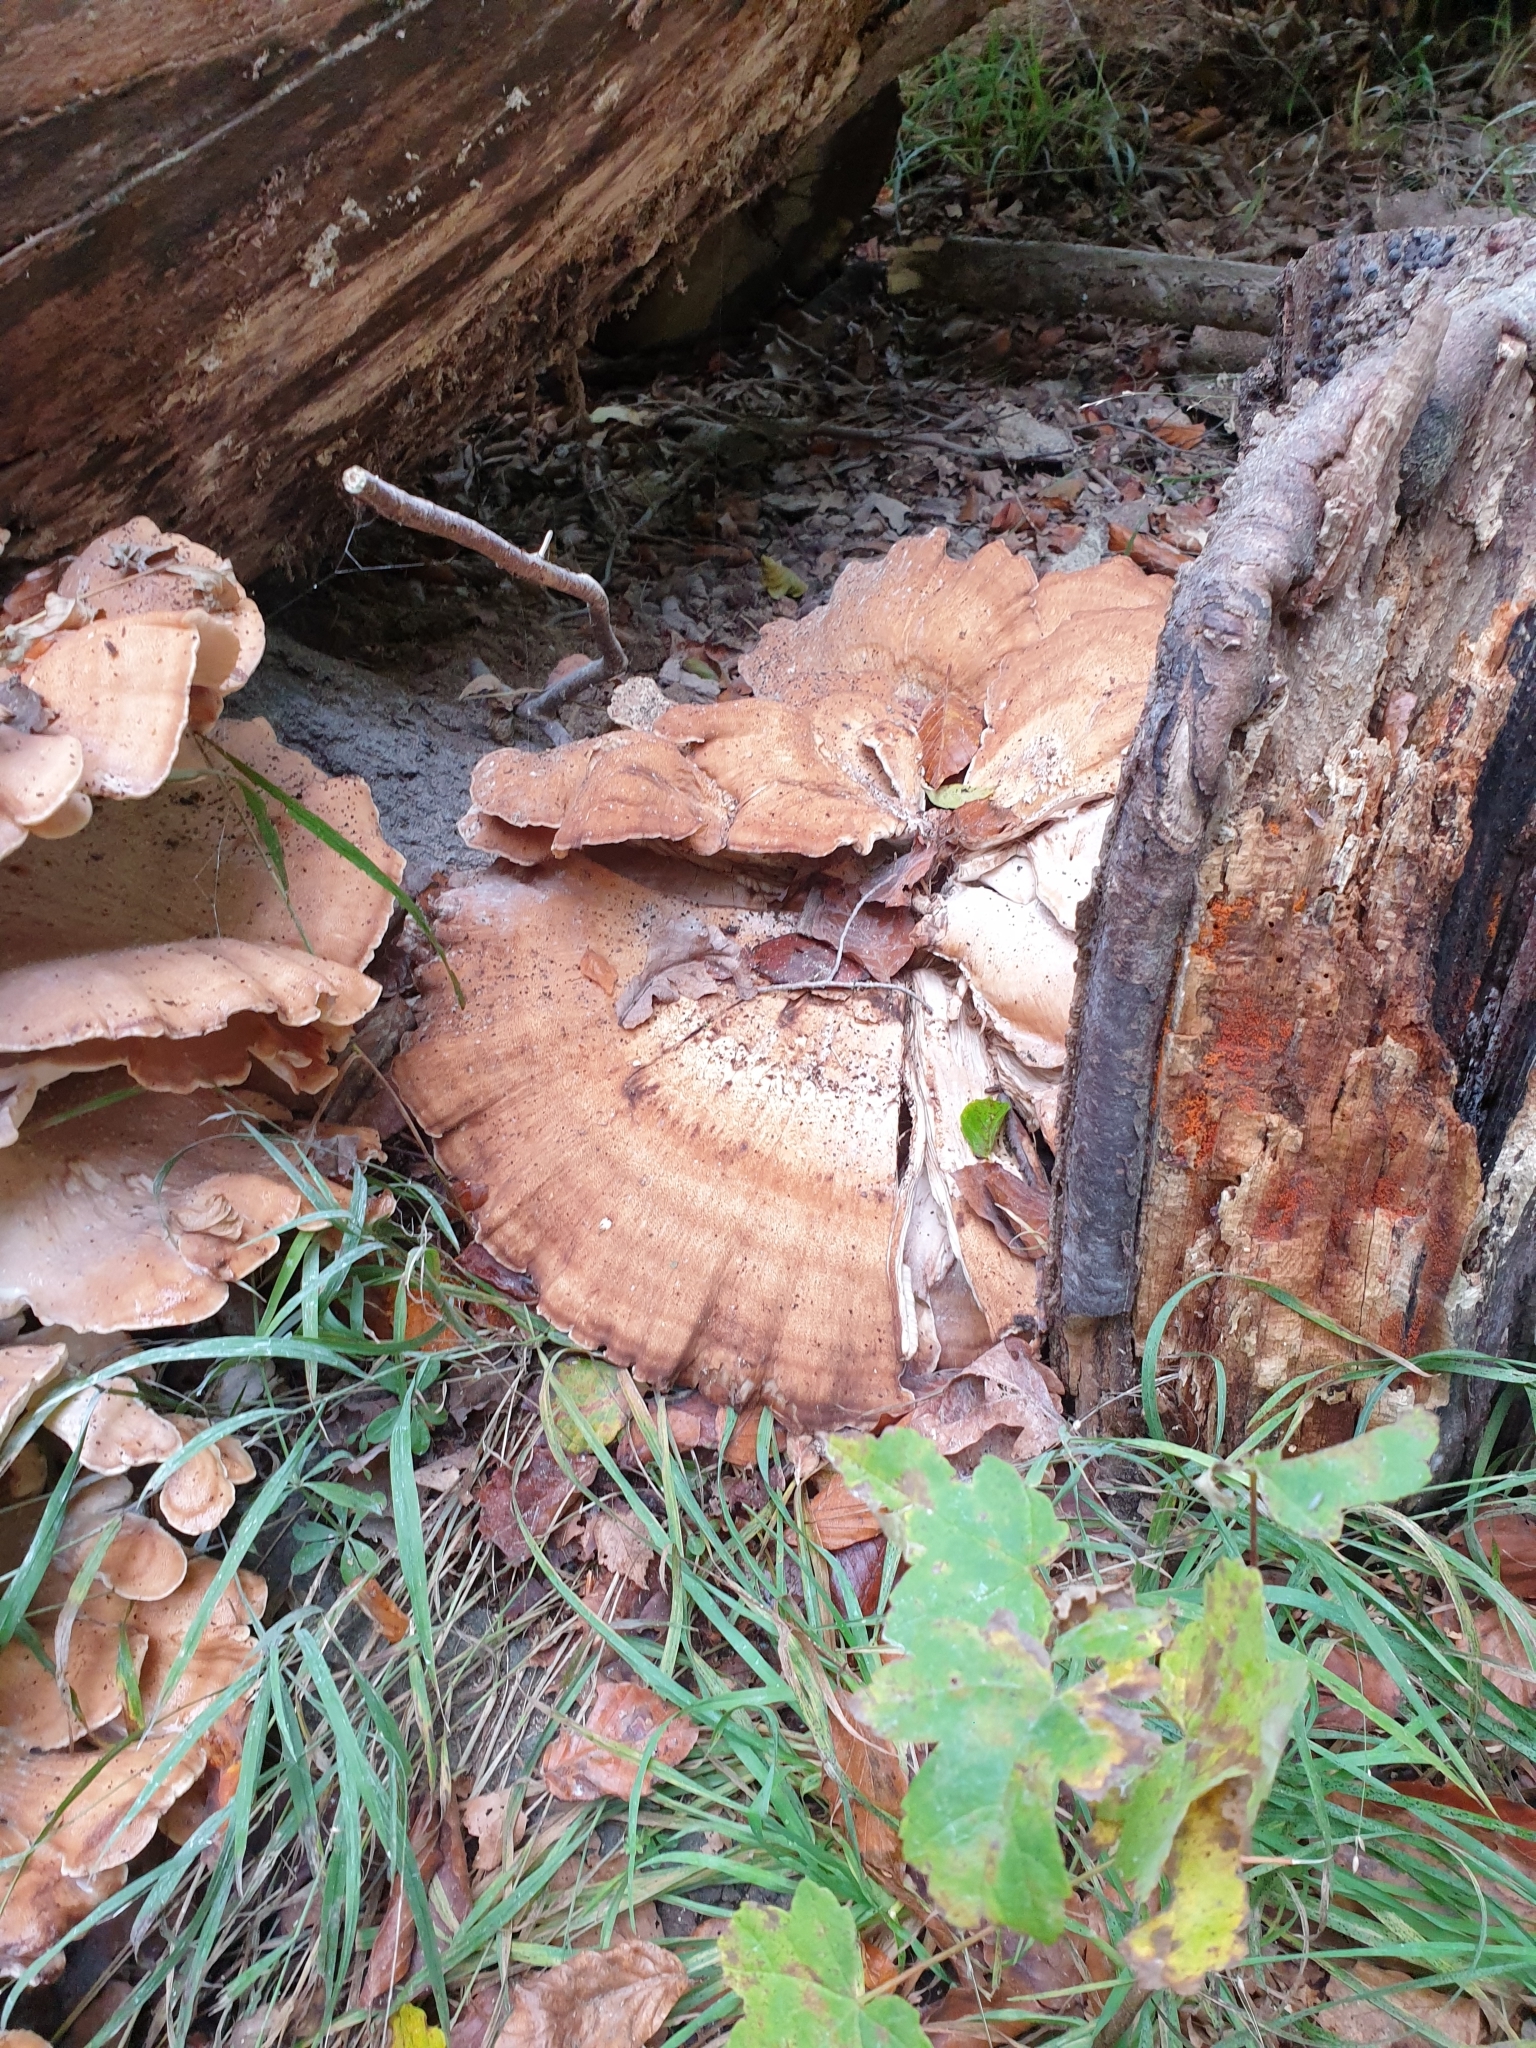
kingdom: Fungi
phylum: Basidiomycota
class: Agaricomycetes
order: Polyporales
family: Meripilaceae
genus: Meripilus
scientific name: Meripilus giganteus
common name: Giant polypore
